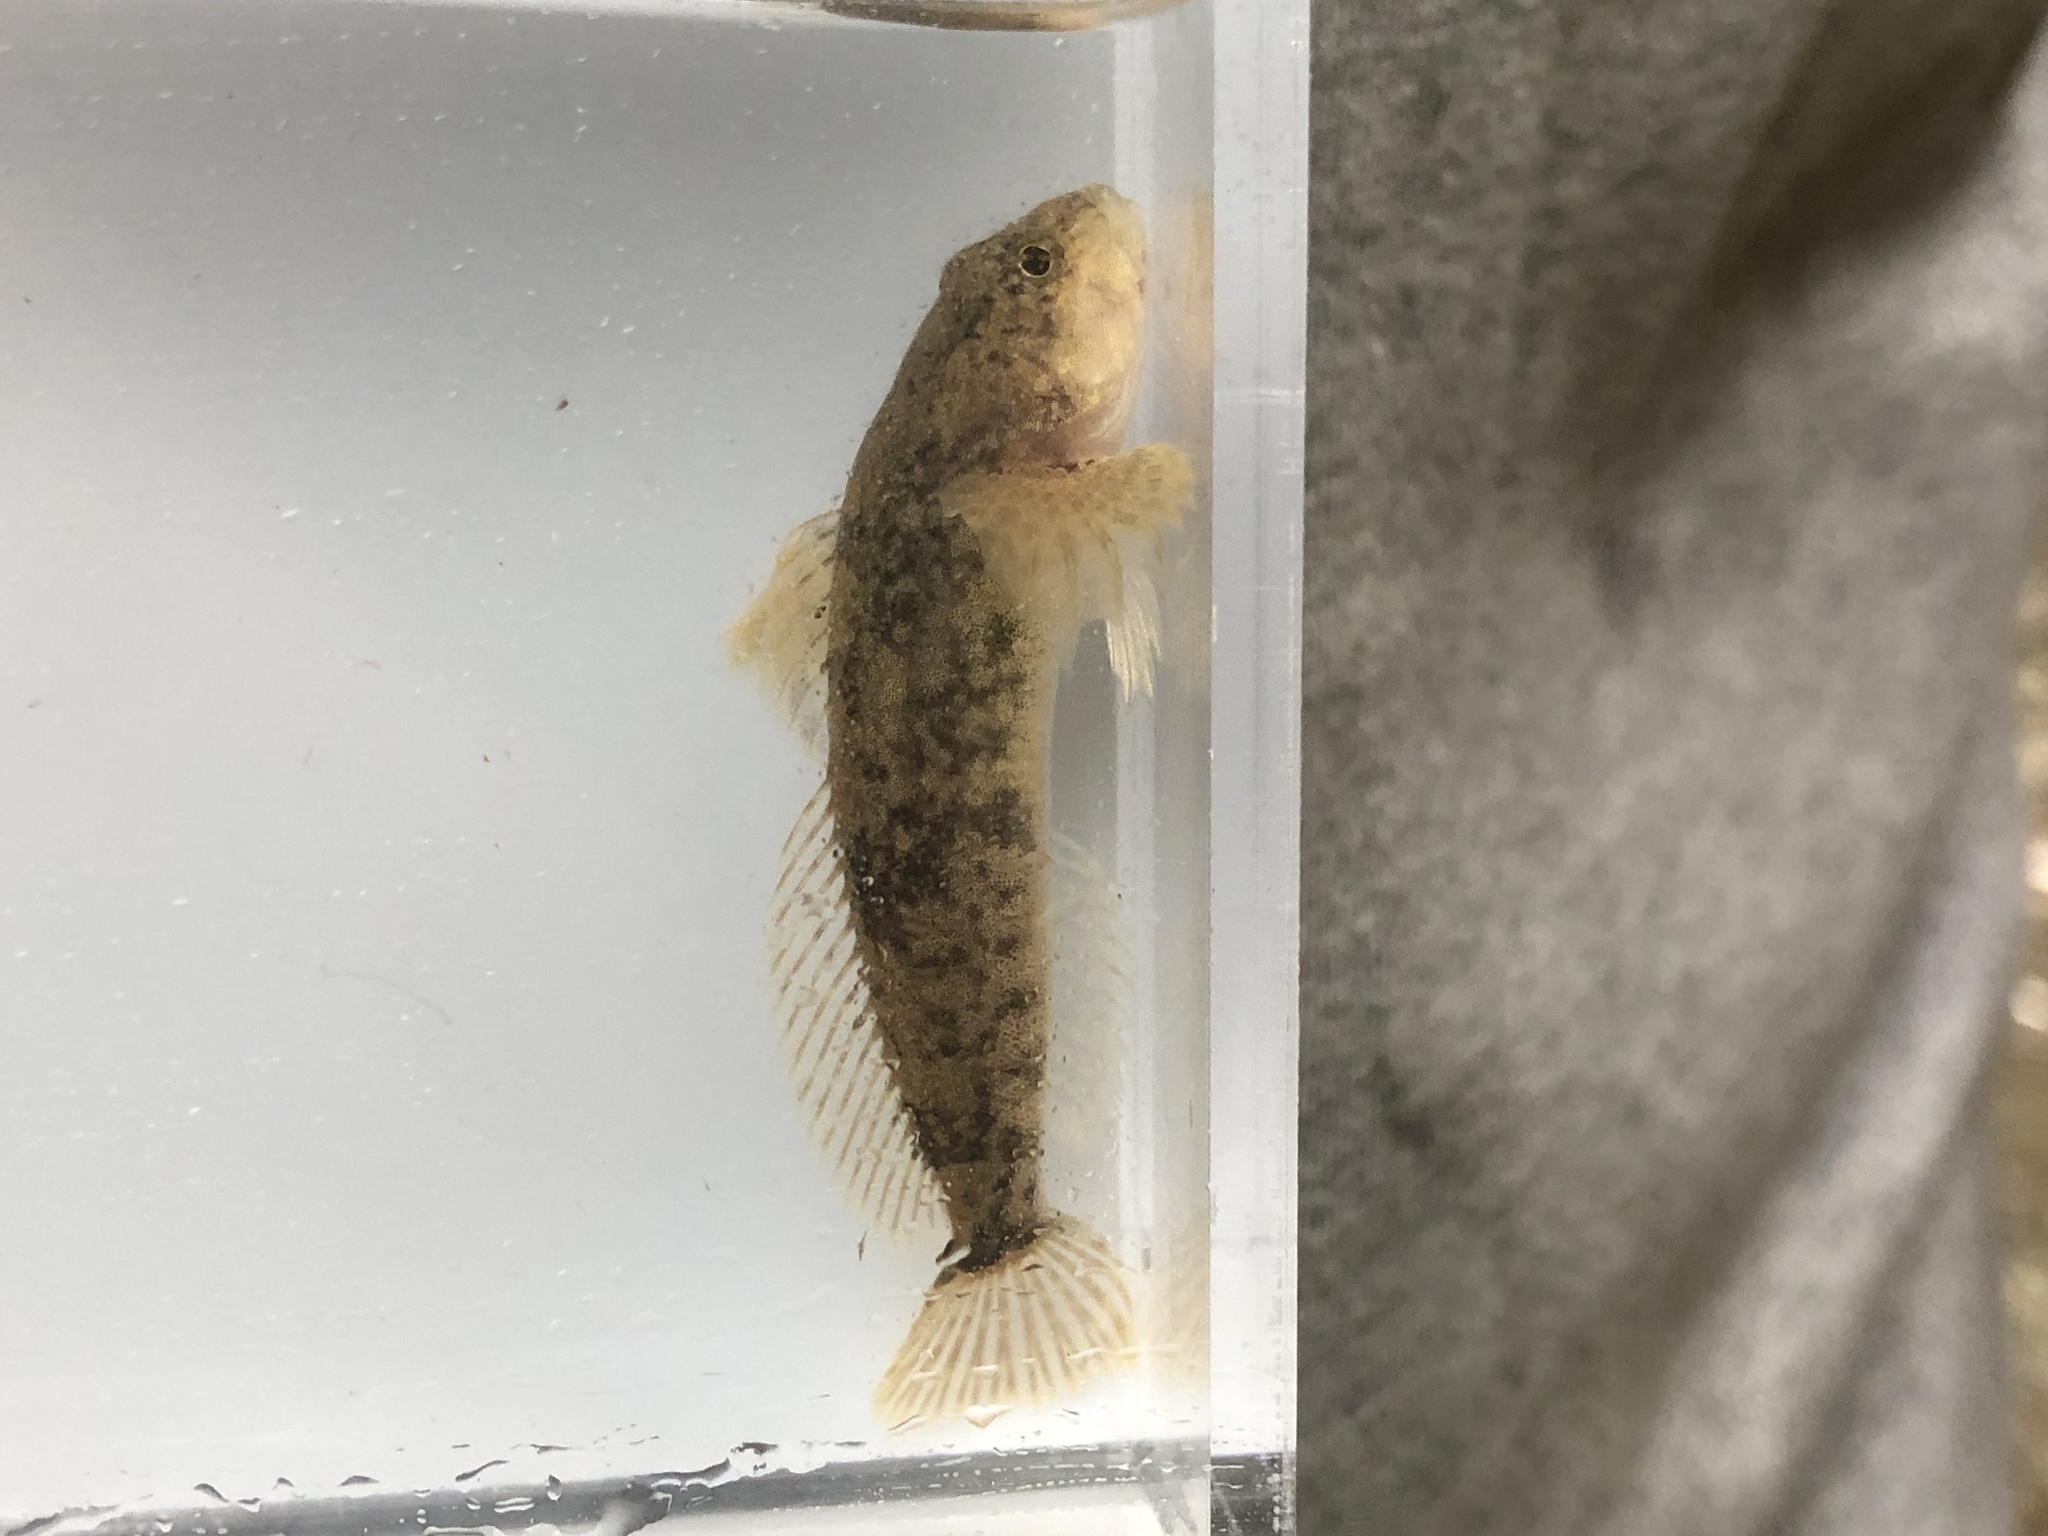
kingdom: Animalia
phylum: Chordata
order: Scorpaeniformes
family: Cottidae
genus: Cottus
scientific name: Cottus bairdii
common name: Mottled sculpin
